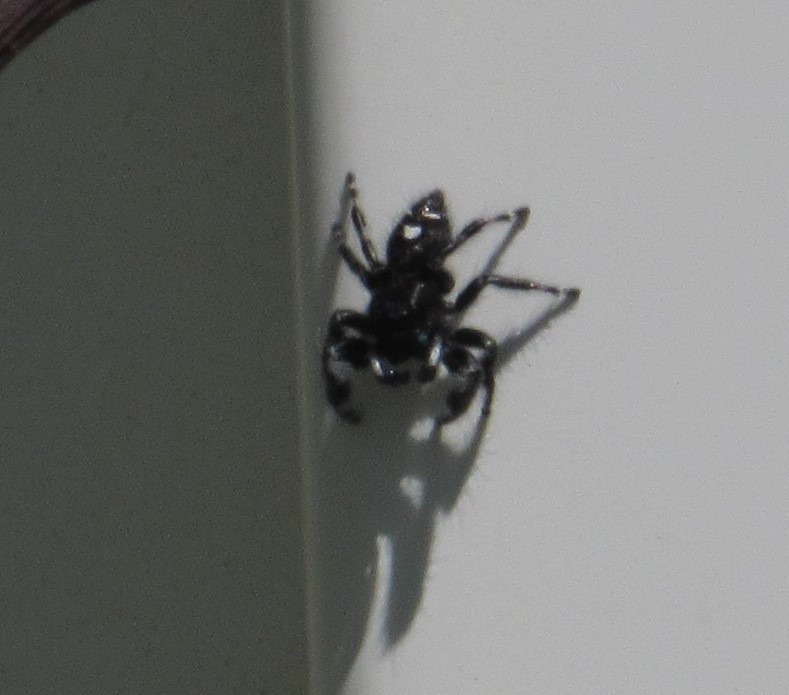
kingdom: Animalia
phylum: Arthropoda
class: Arachnida
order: Araneae
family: Salticidae
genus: Phidippus
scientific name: Phidippus audax
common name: Bold jumper
